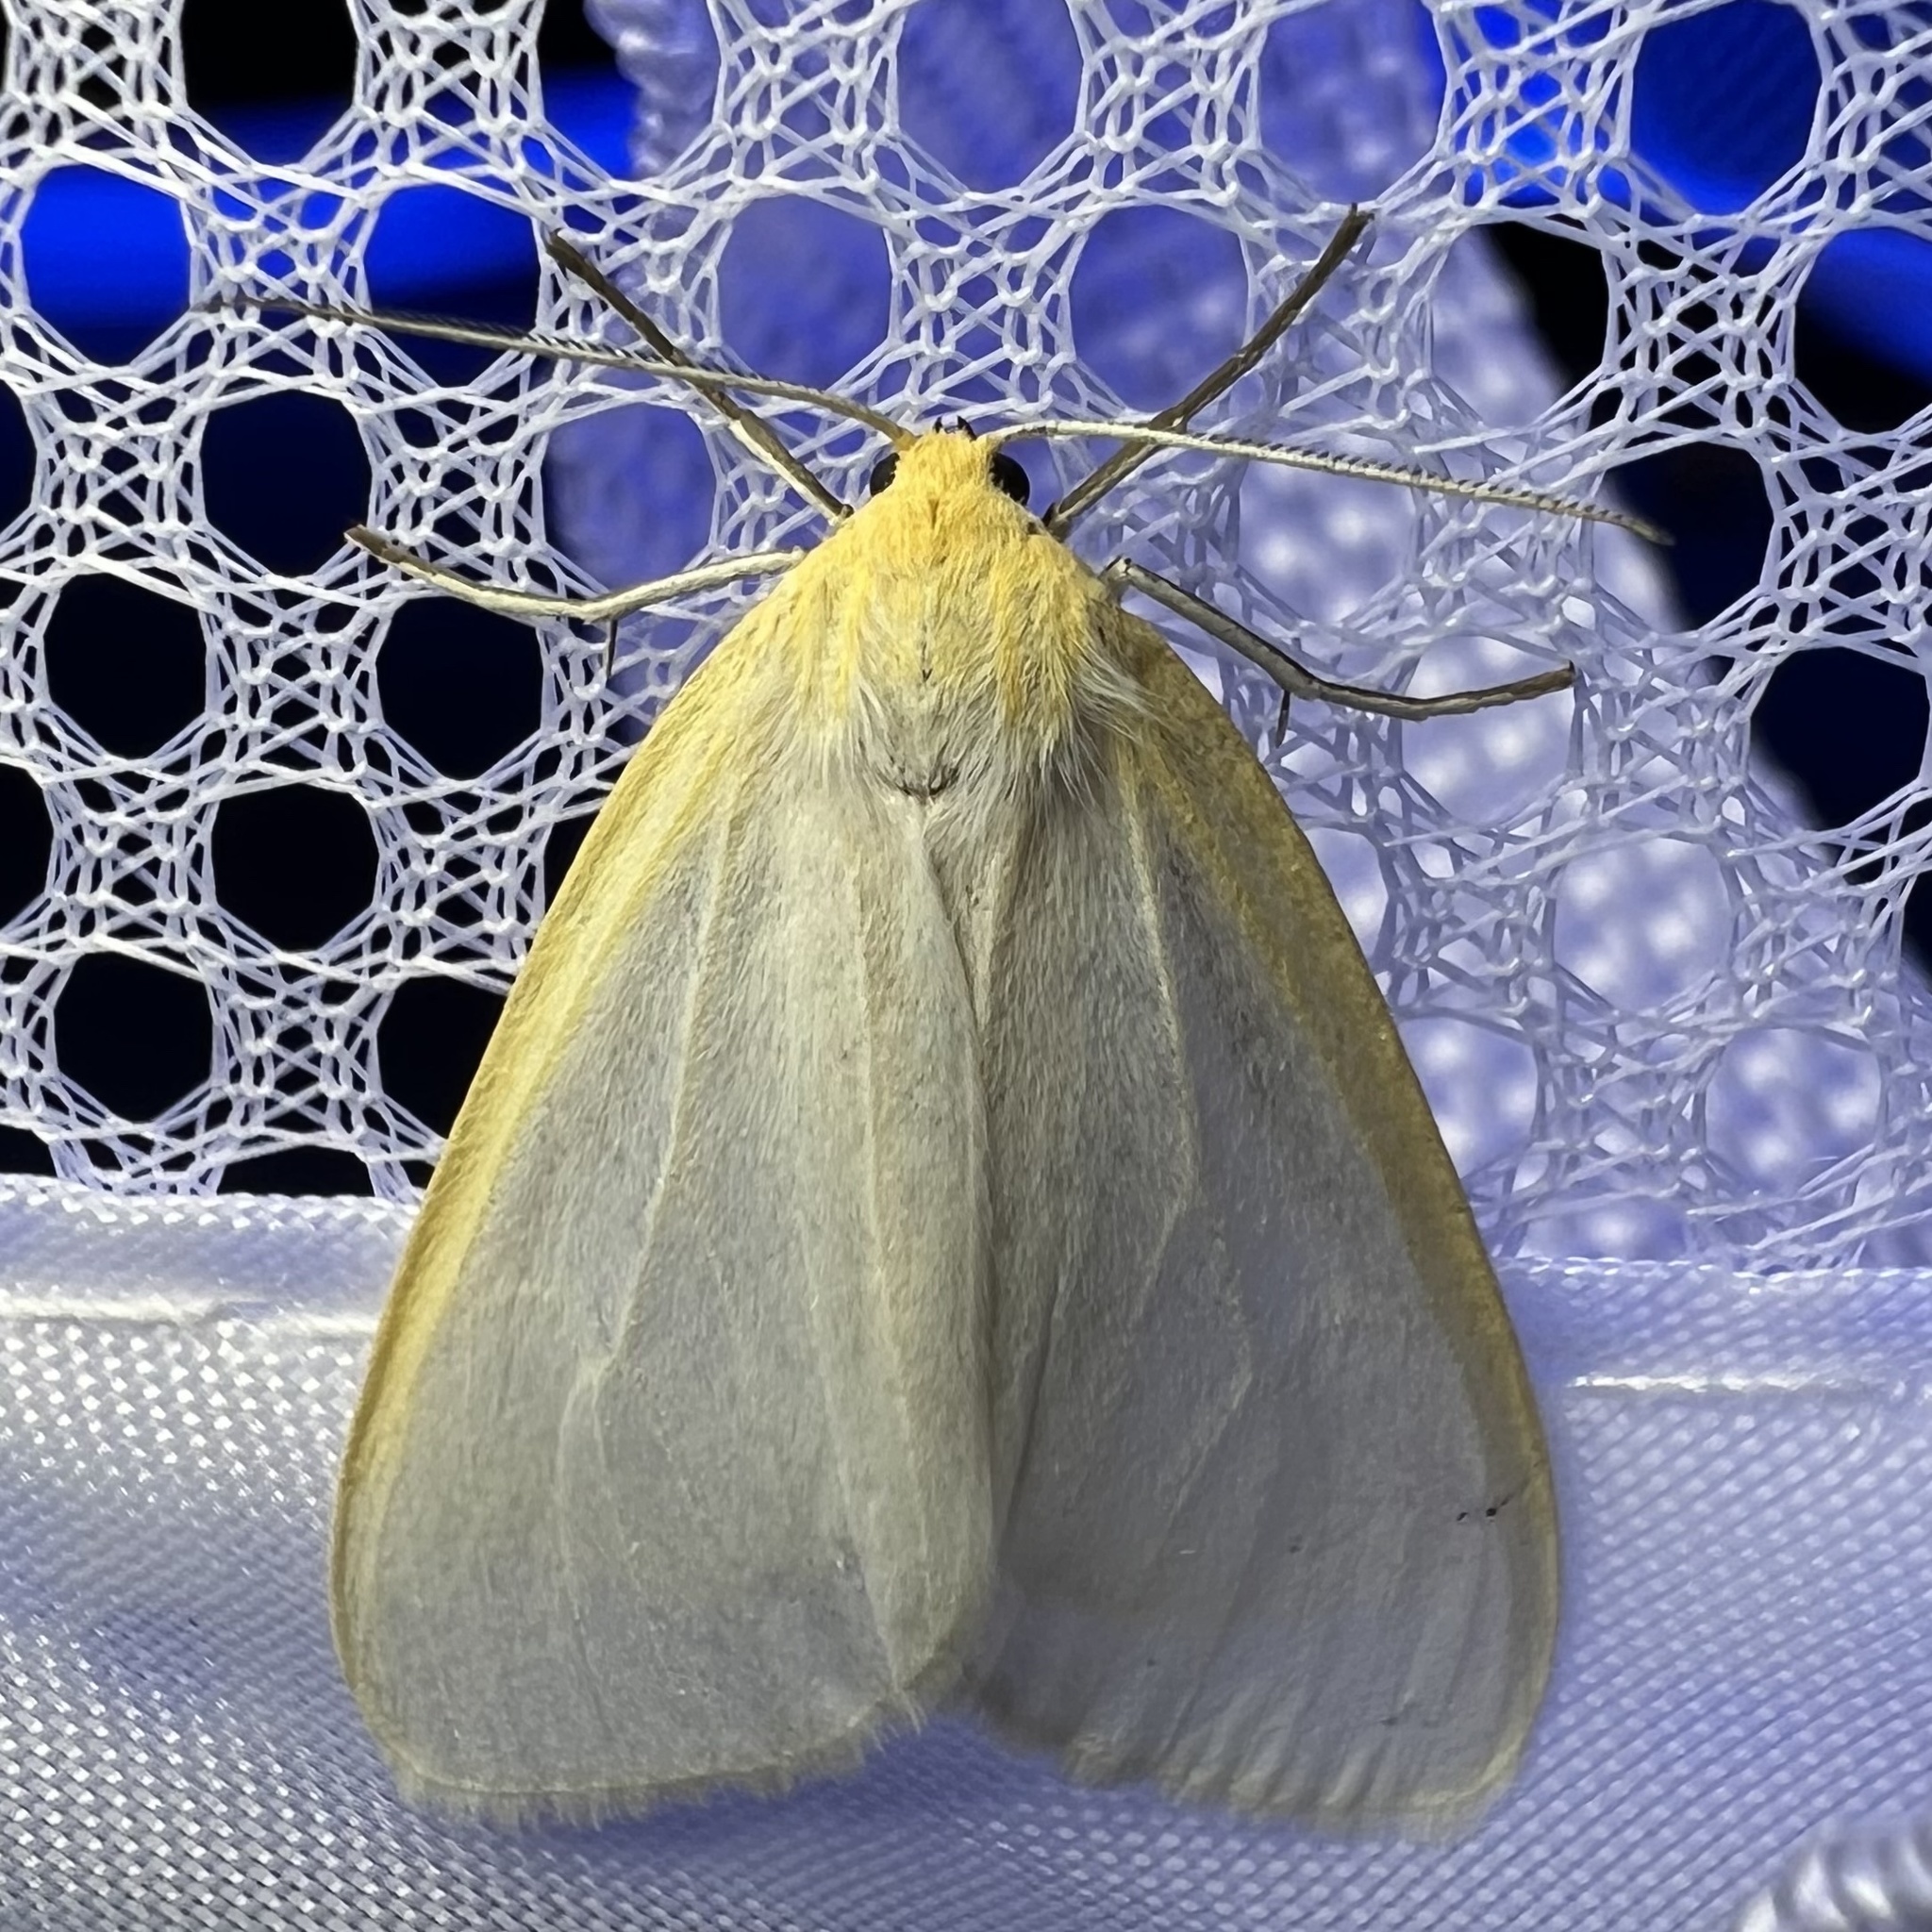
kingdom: Animalia
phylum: Arthropoda
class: Insecta
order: Lepidoptera
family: Erebidae
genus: Cycnia
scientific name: Cycnia tenera
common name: Delicate cycnia moth
